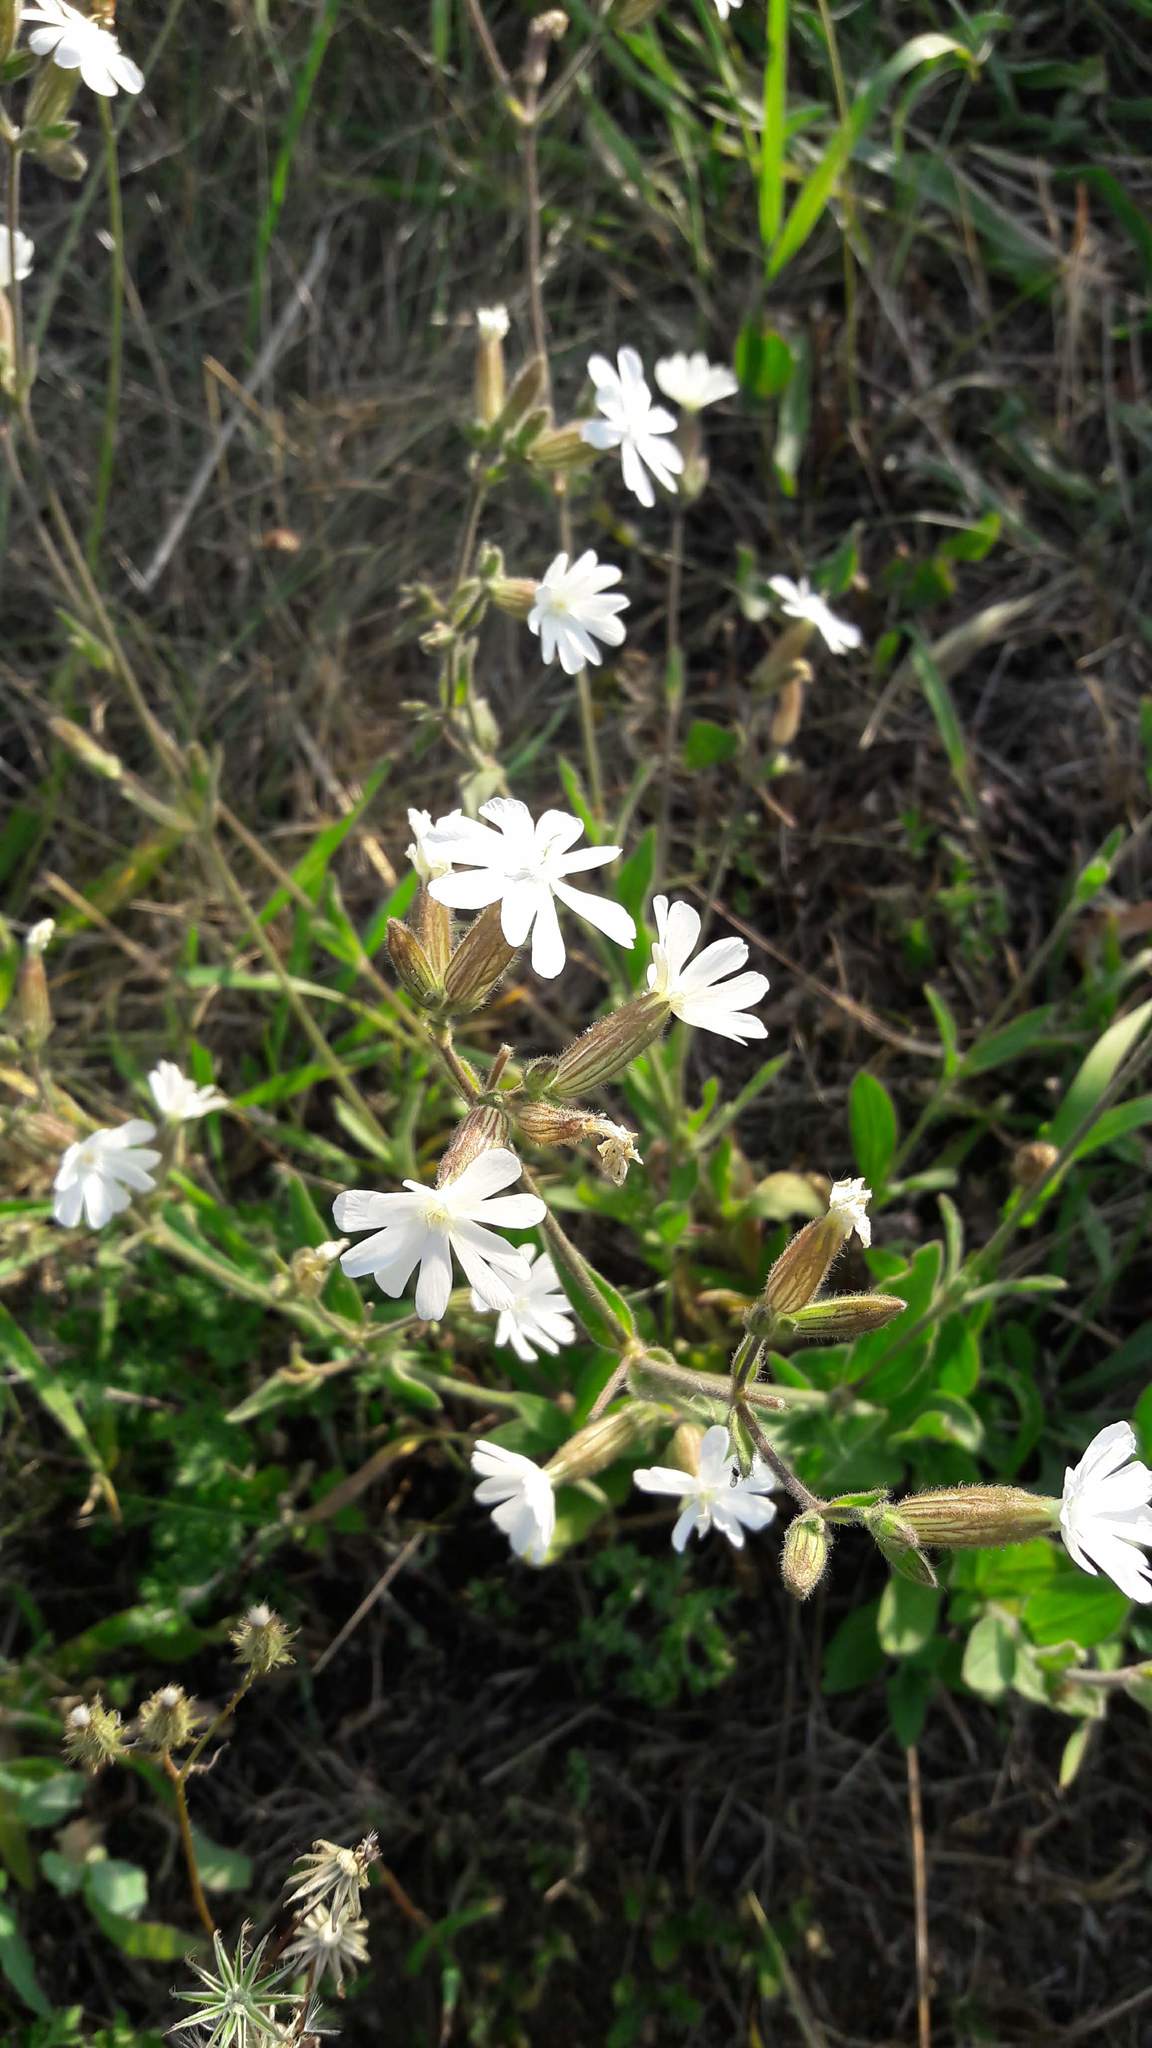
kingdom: Plantae
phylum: Tracheophyta
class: Magnoliopsida
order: Caryophyllales
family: Caryophyllaceae
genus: Silene
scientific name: Silene latifolia
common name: White campion
